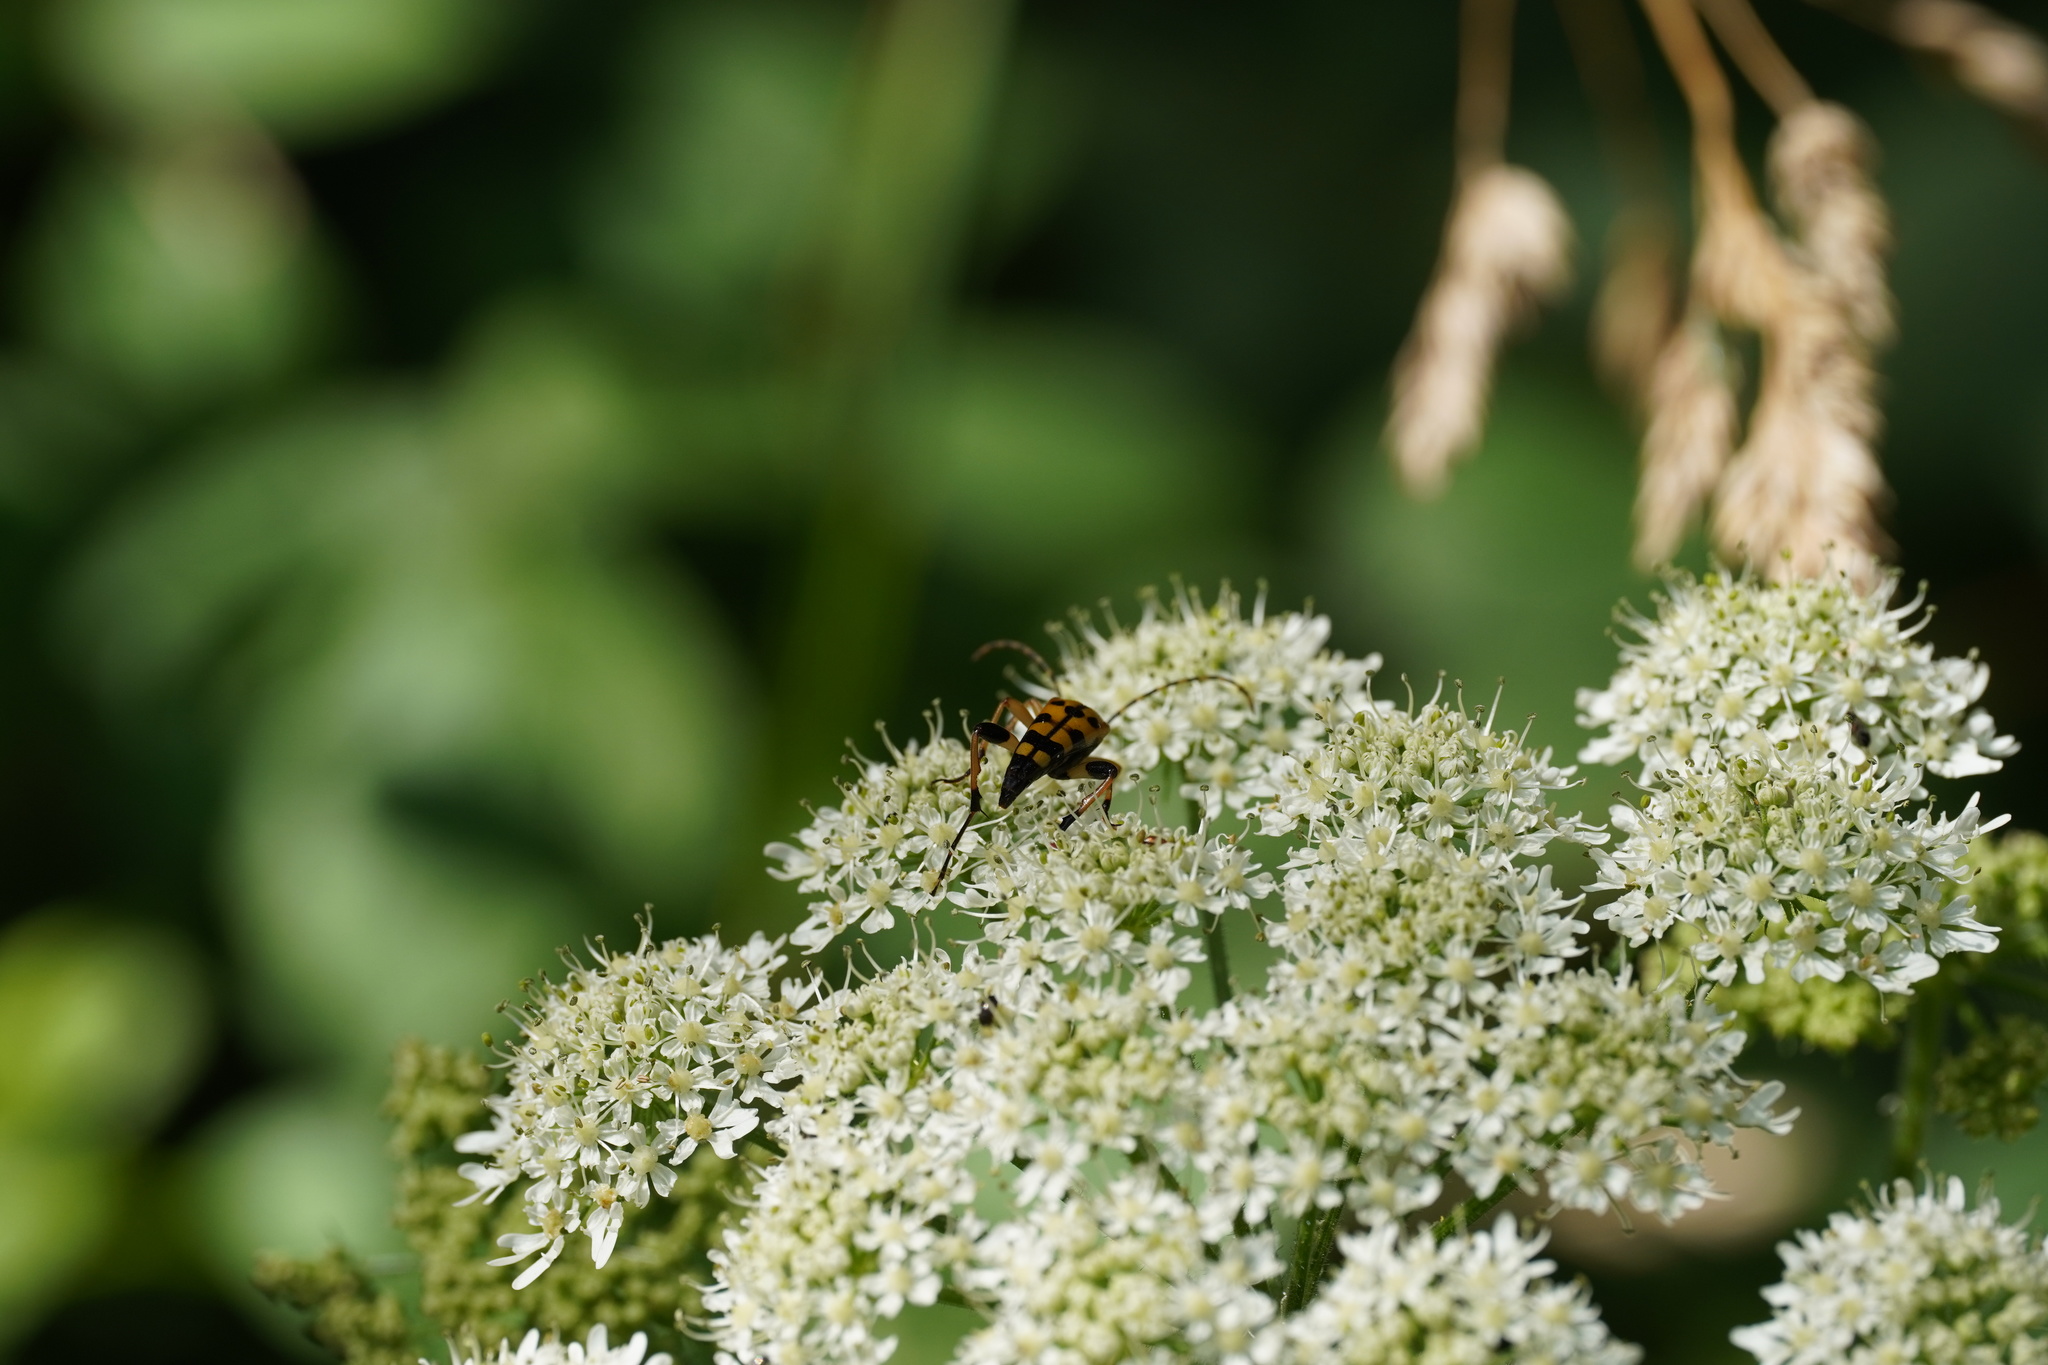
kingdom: Animalia
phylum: Arthropoda
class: Insecta
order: Coleoptera
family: Cerambycidae
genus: Rutpela
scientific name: Rutpela maculata
